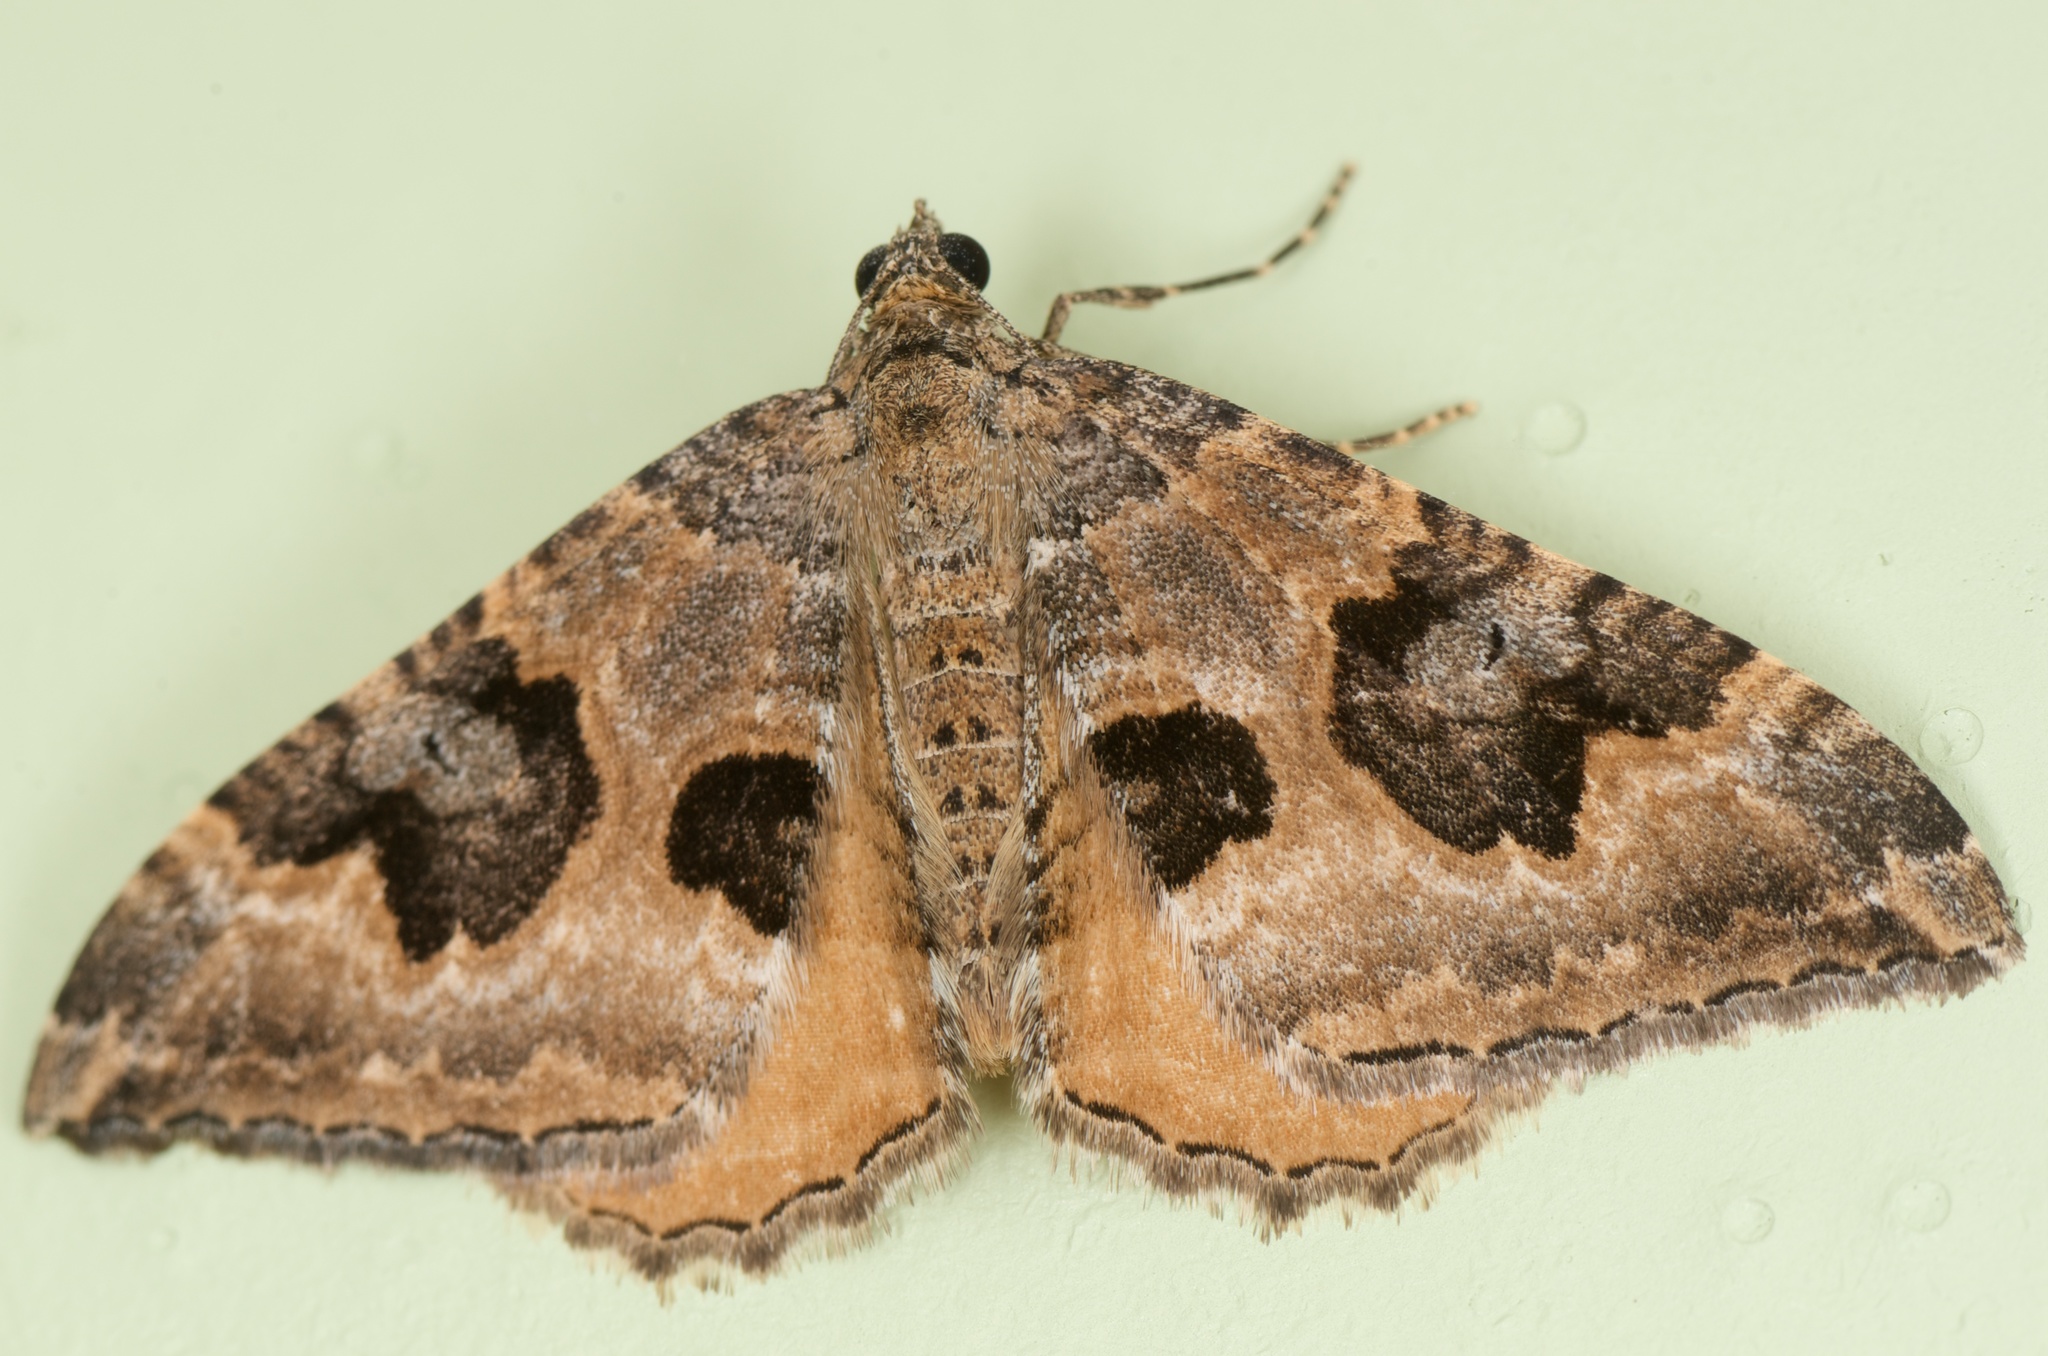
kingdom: Animalia
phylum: Arthropoda
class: Insecta
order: Lepidoptera
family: Geometridae
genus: Hydriomena
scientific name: Hydriomena deltoidata
